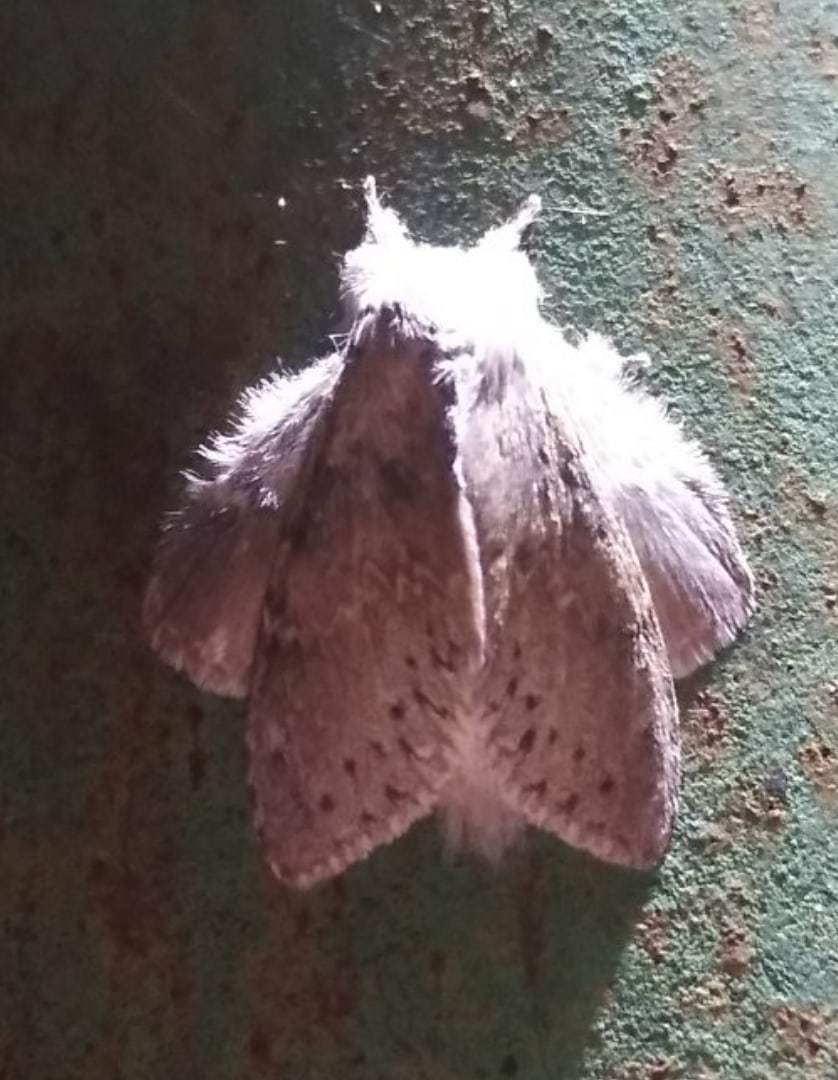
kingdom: Animalia
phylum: Arthropoda
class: Insecta
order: Lepidoptera
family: Notodontidae
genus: Stauropus
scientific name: Stauropus fagi
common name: Lobster moth
